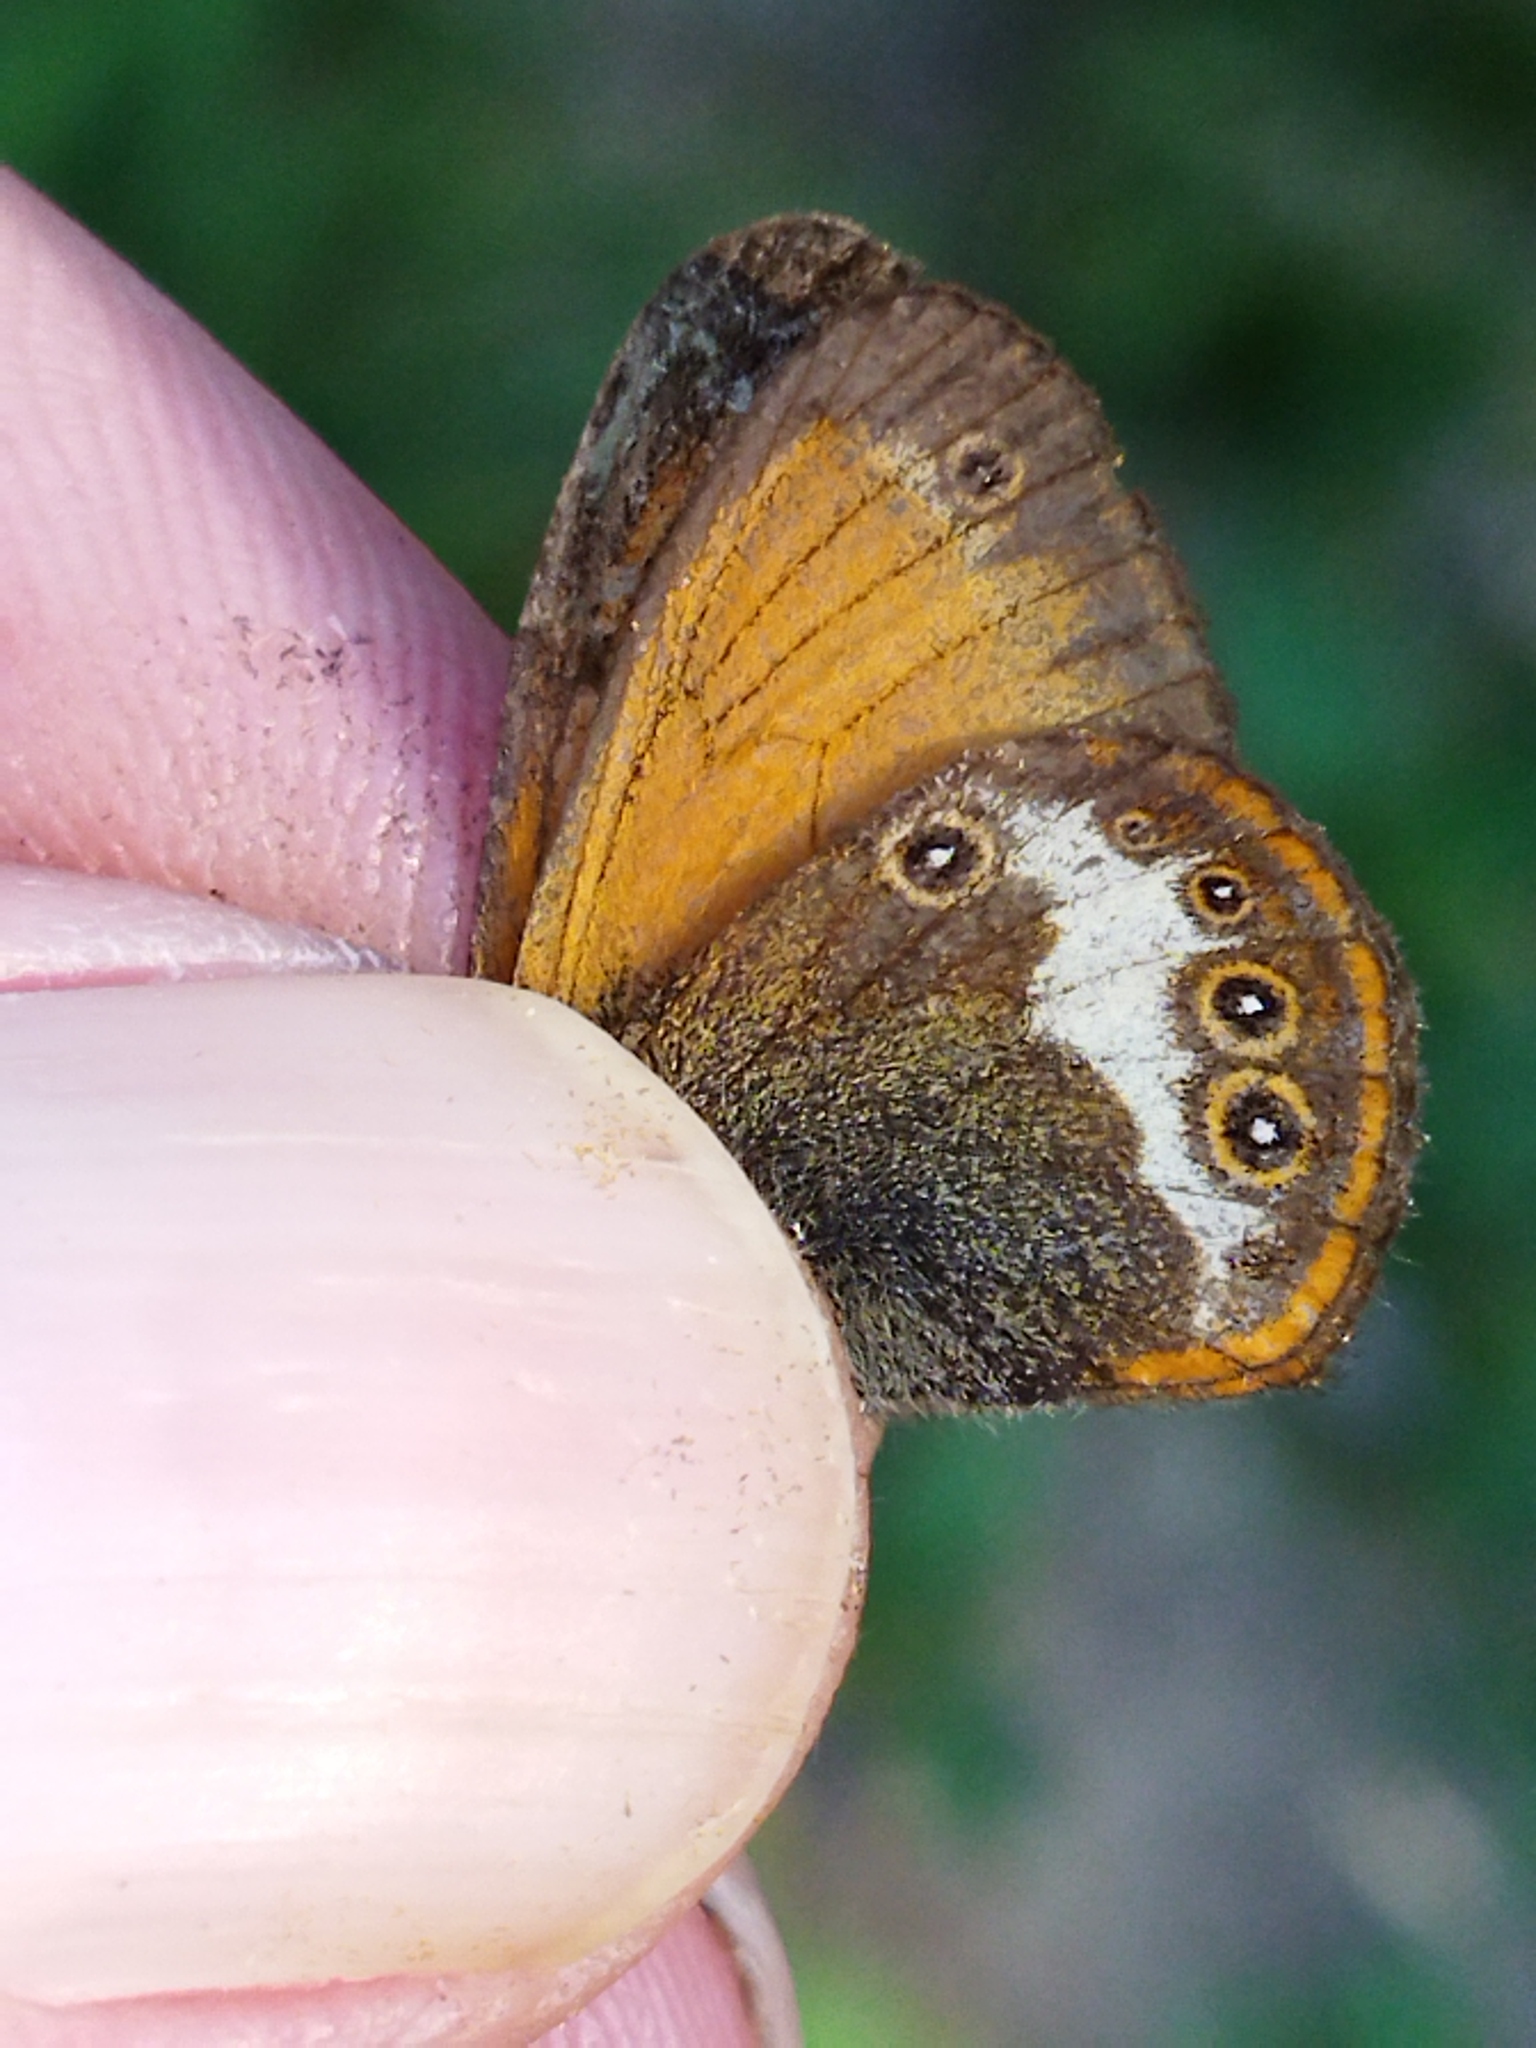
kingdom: Animalia
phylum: Arthropoda
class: Insecta
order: Lepidoptera
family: Nymphalidae
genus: Coenonympha
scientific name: Coenonympha arcania
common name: Pearly heath
